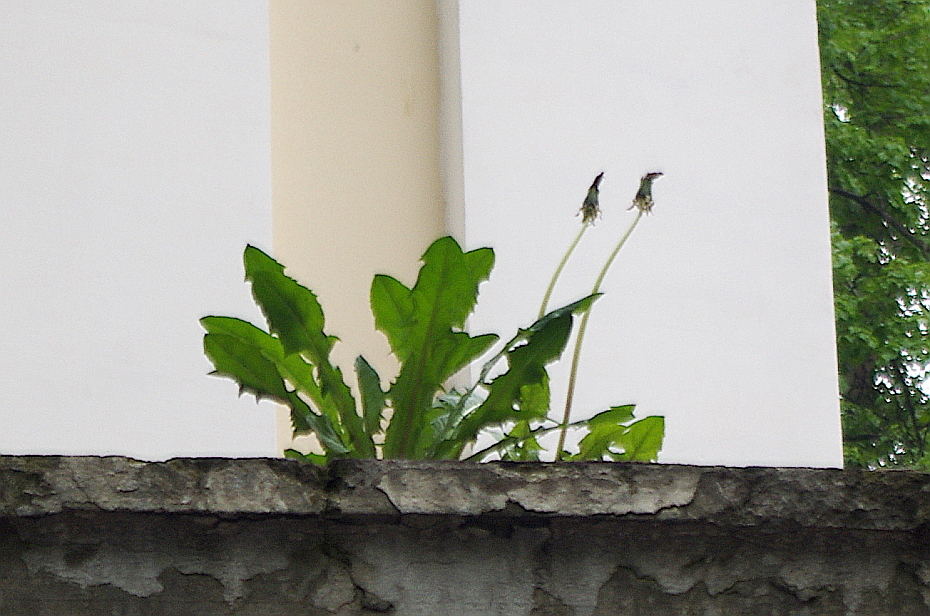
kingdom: Plantae
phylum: Tracheophyta
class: Magnoliopsida
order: Asterales
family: Asteraceae
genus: Taraxacum
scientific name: Taraxacum officinale
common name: Common dandelion
